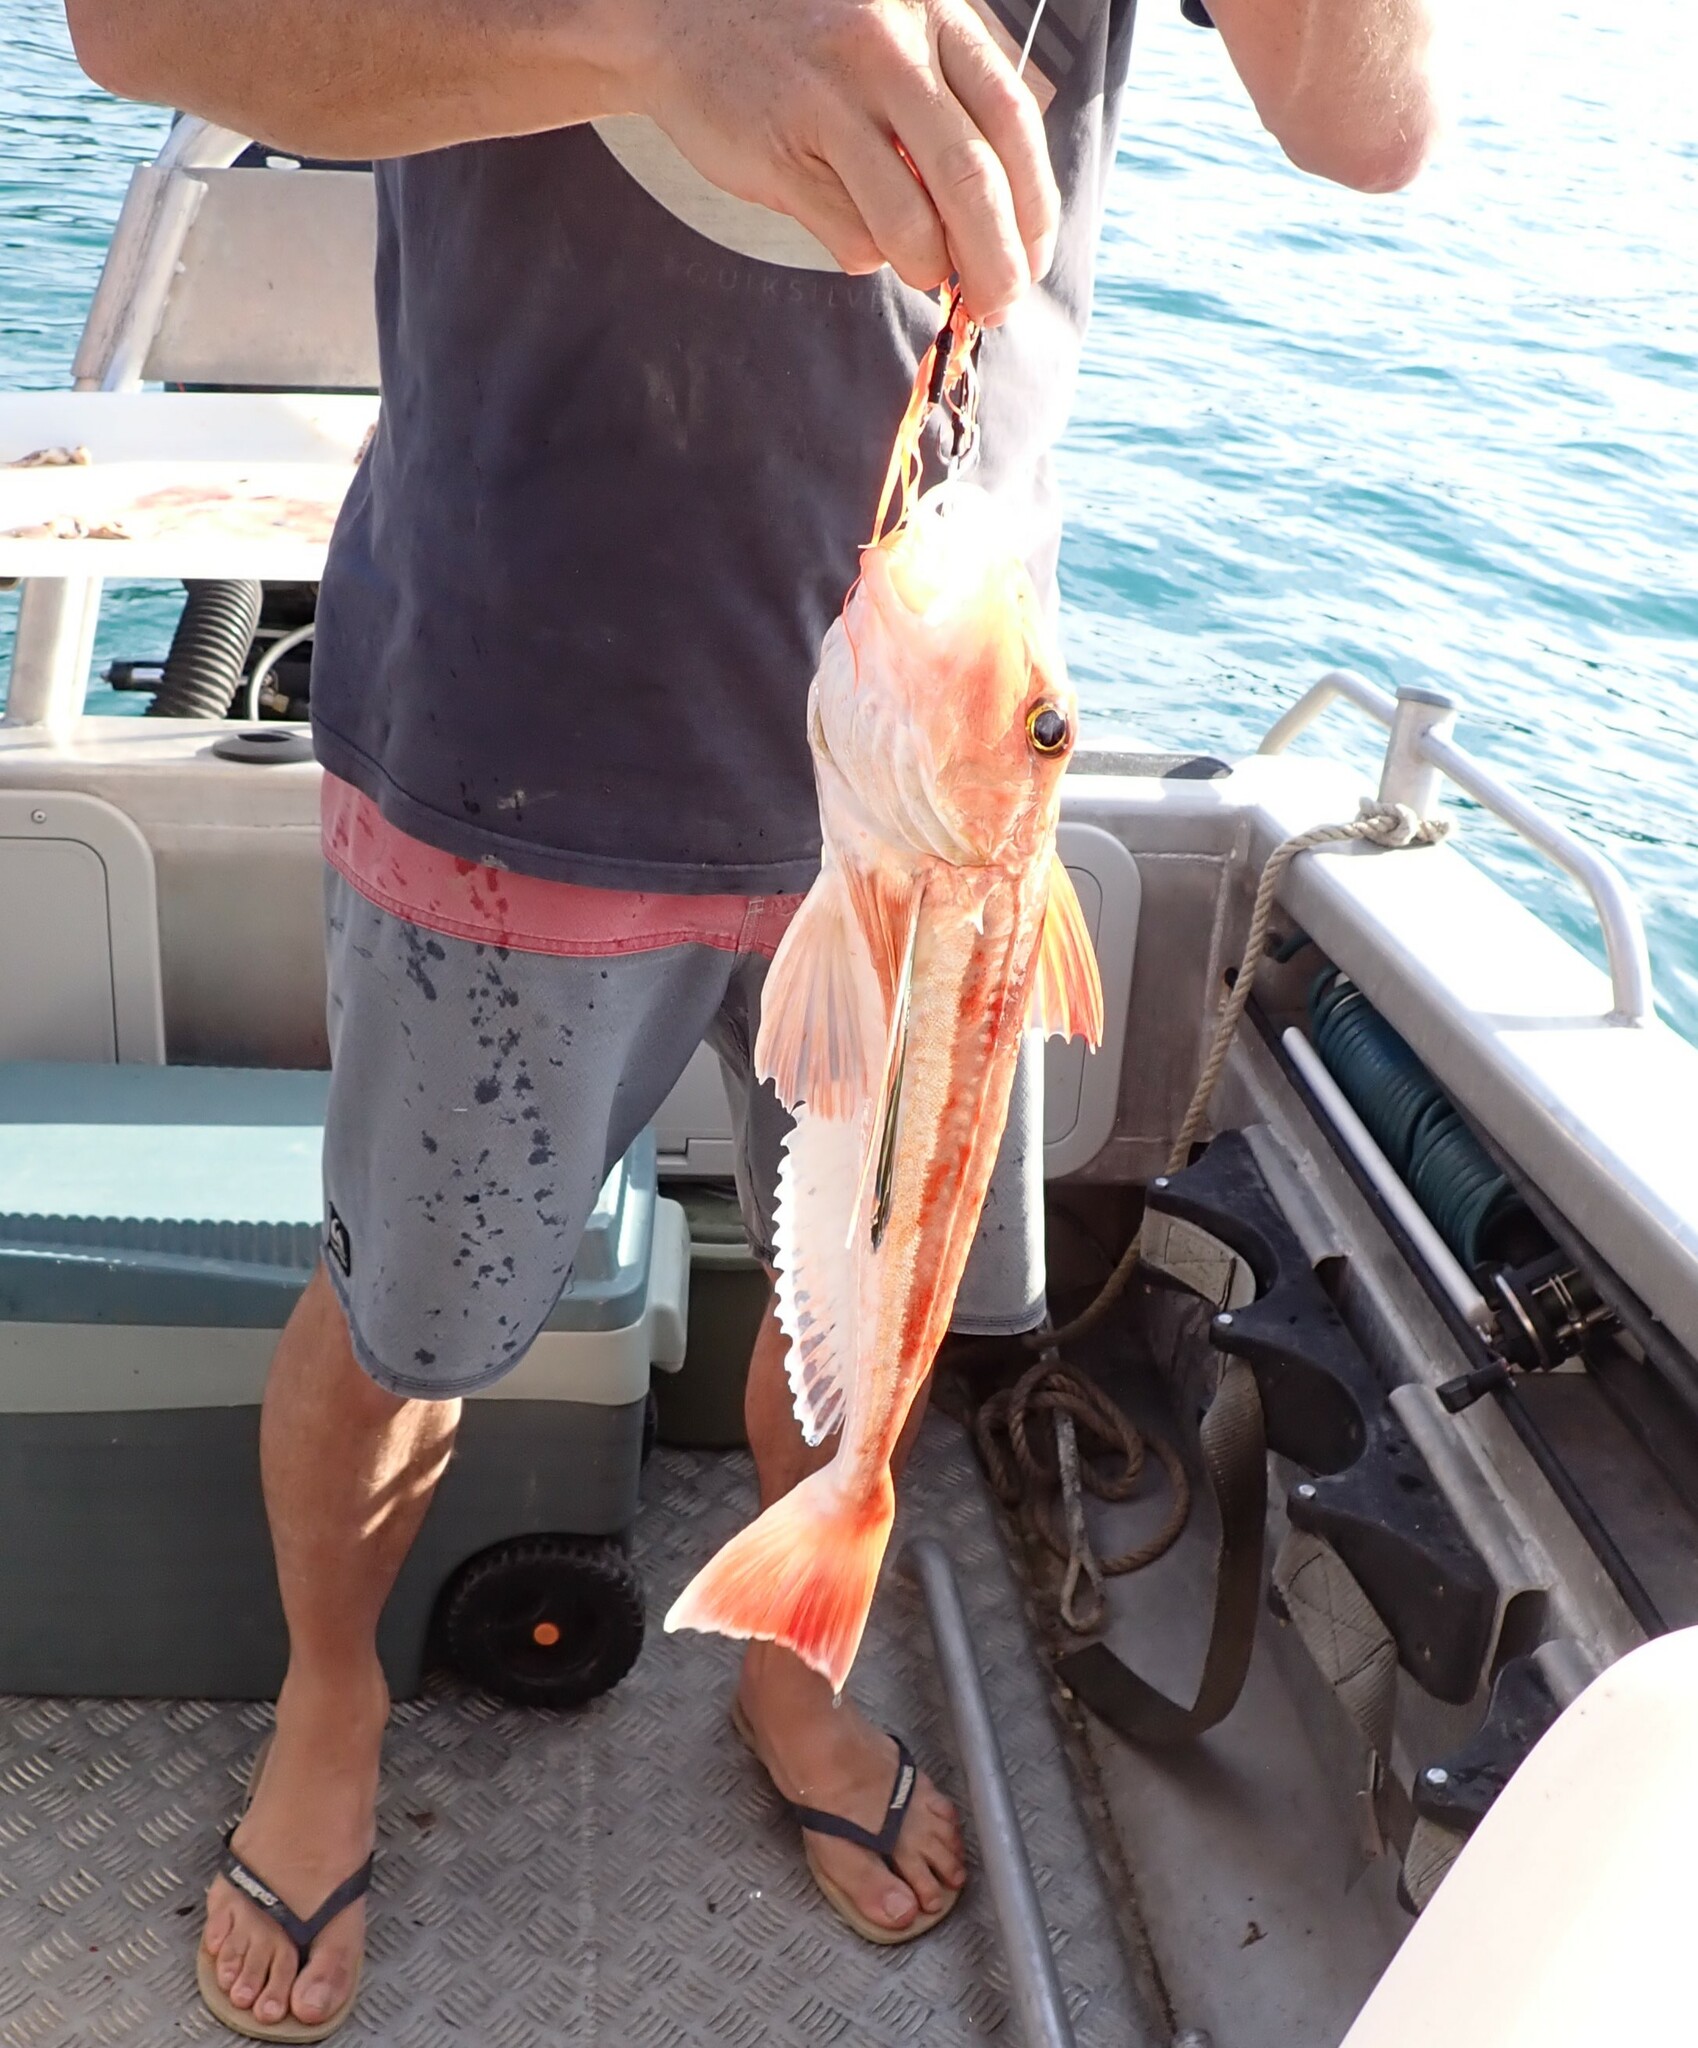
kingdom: Animalia
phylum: Chordata
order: Scorpaeniformes
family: Triglidae
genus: Chelidonichthys
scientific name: Chelidonichthys kumu
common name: Bluefin gurnard
